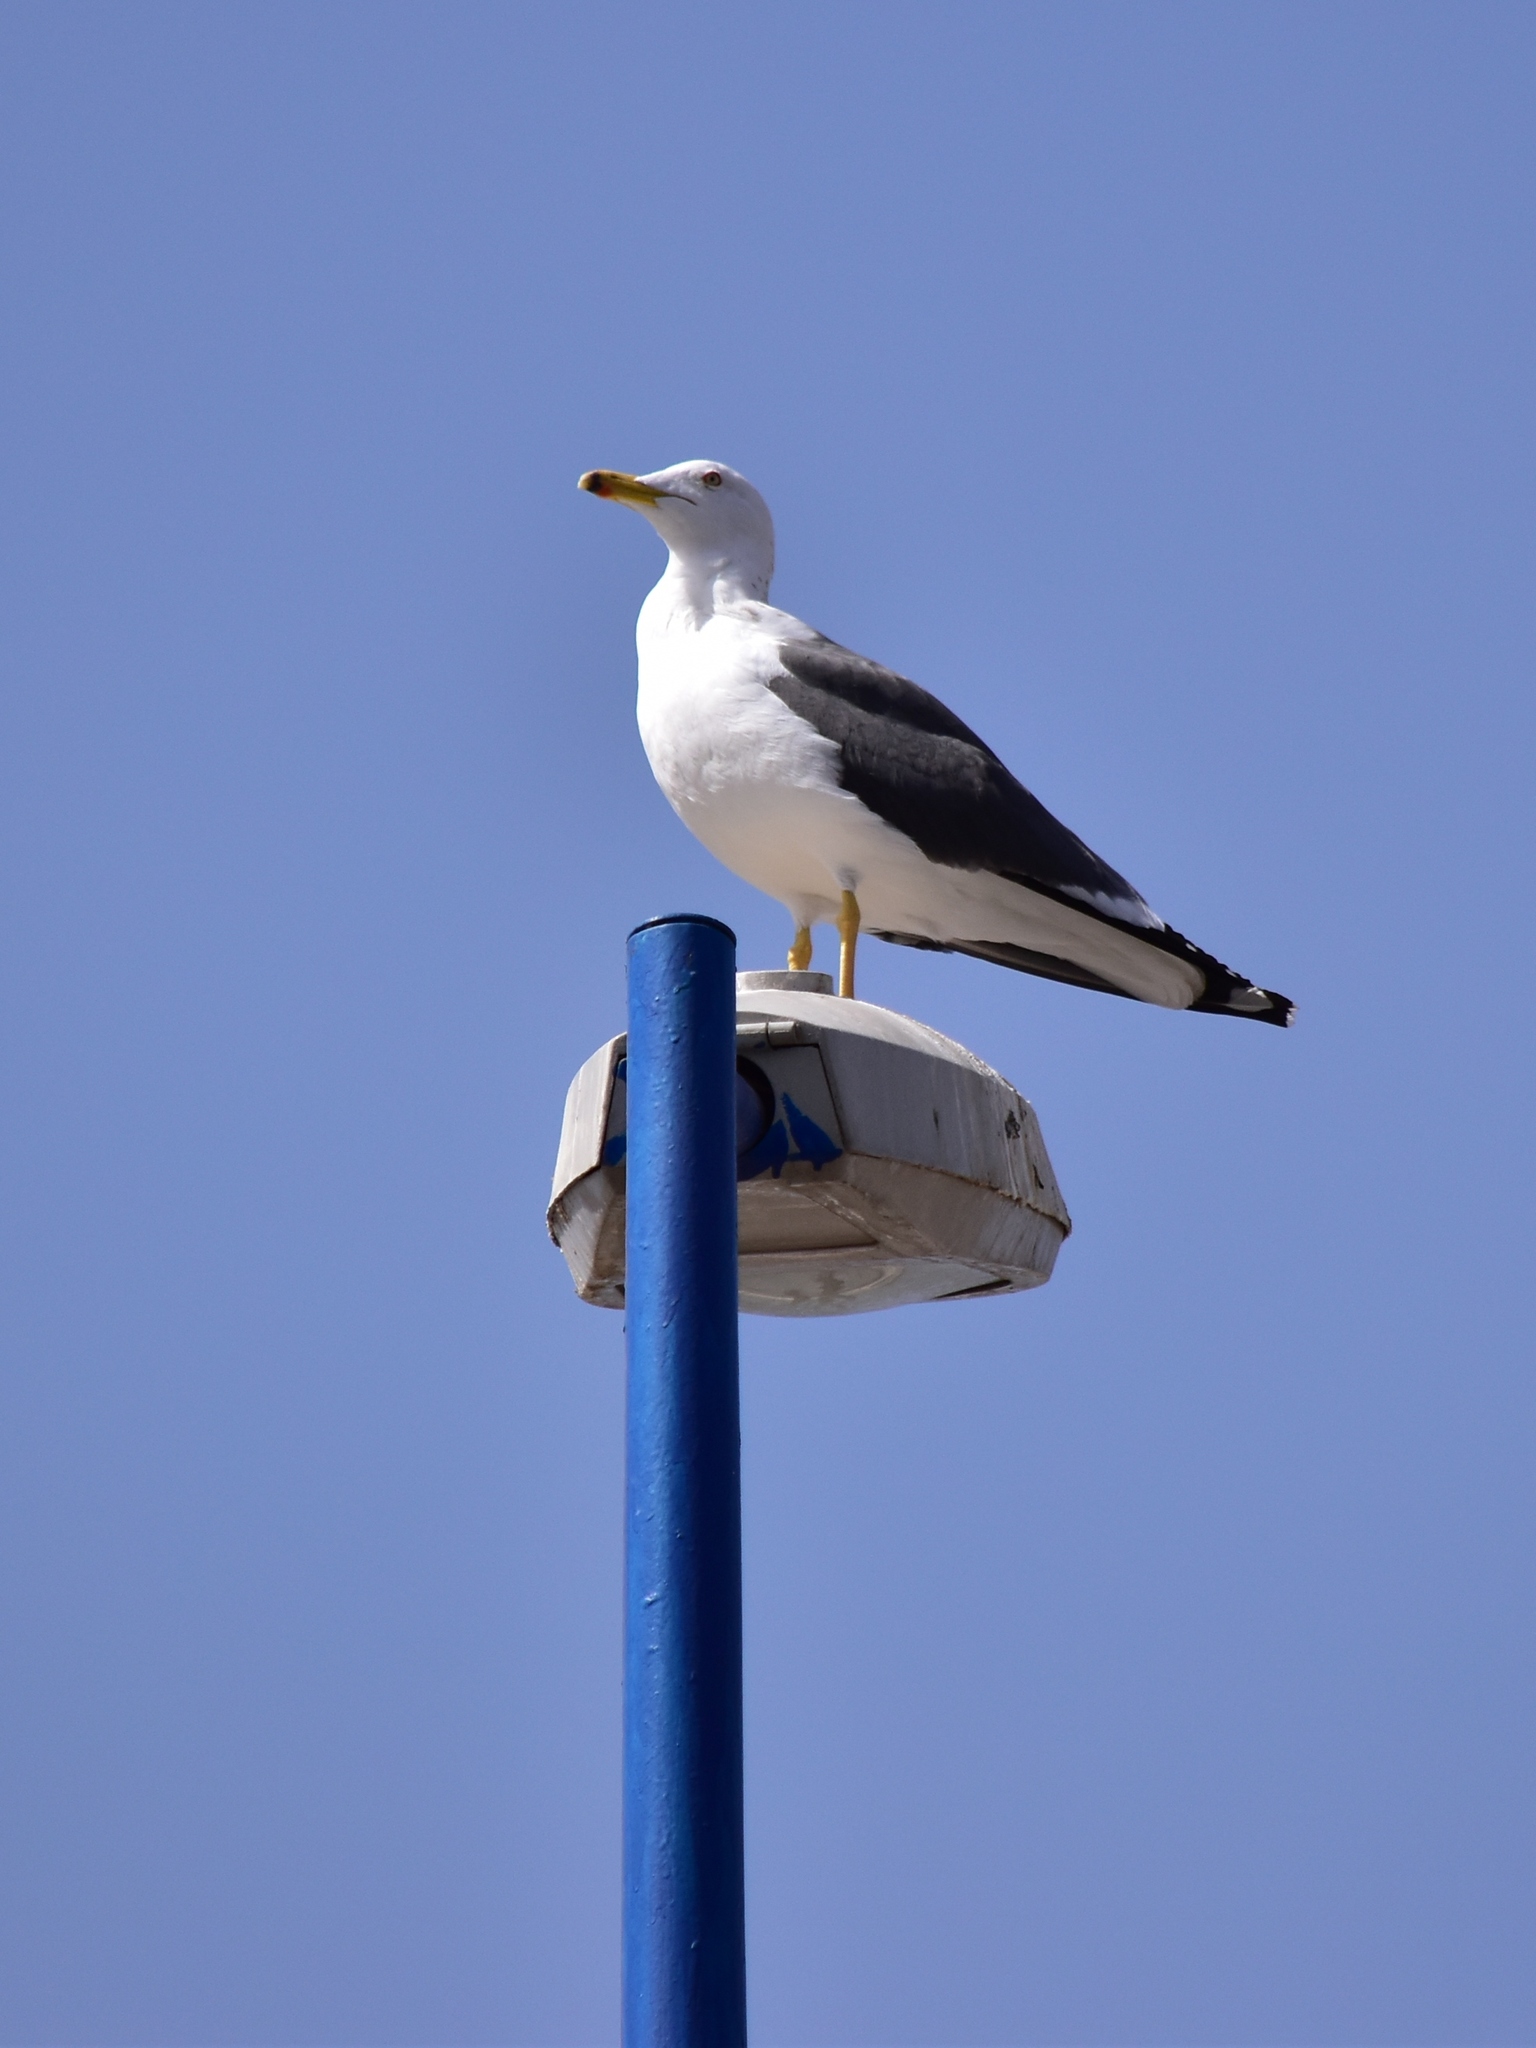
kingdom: Animalia
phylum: Chordata
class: Aves
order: Charadriiformes
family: Laridae
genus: Larus
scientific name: Larus fuscus
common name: Lesser black-backed gull
